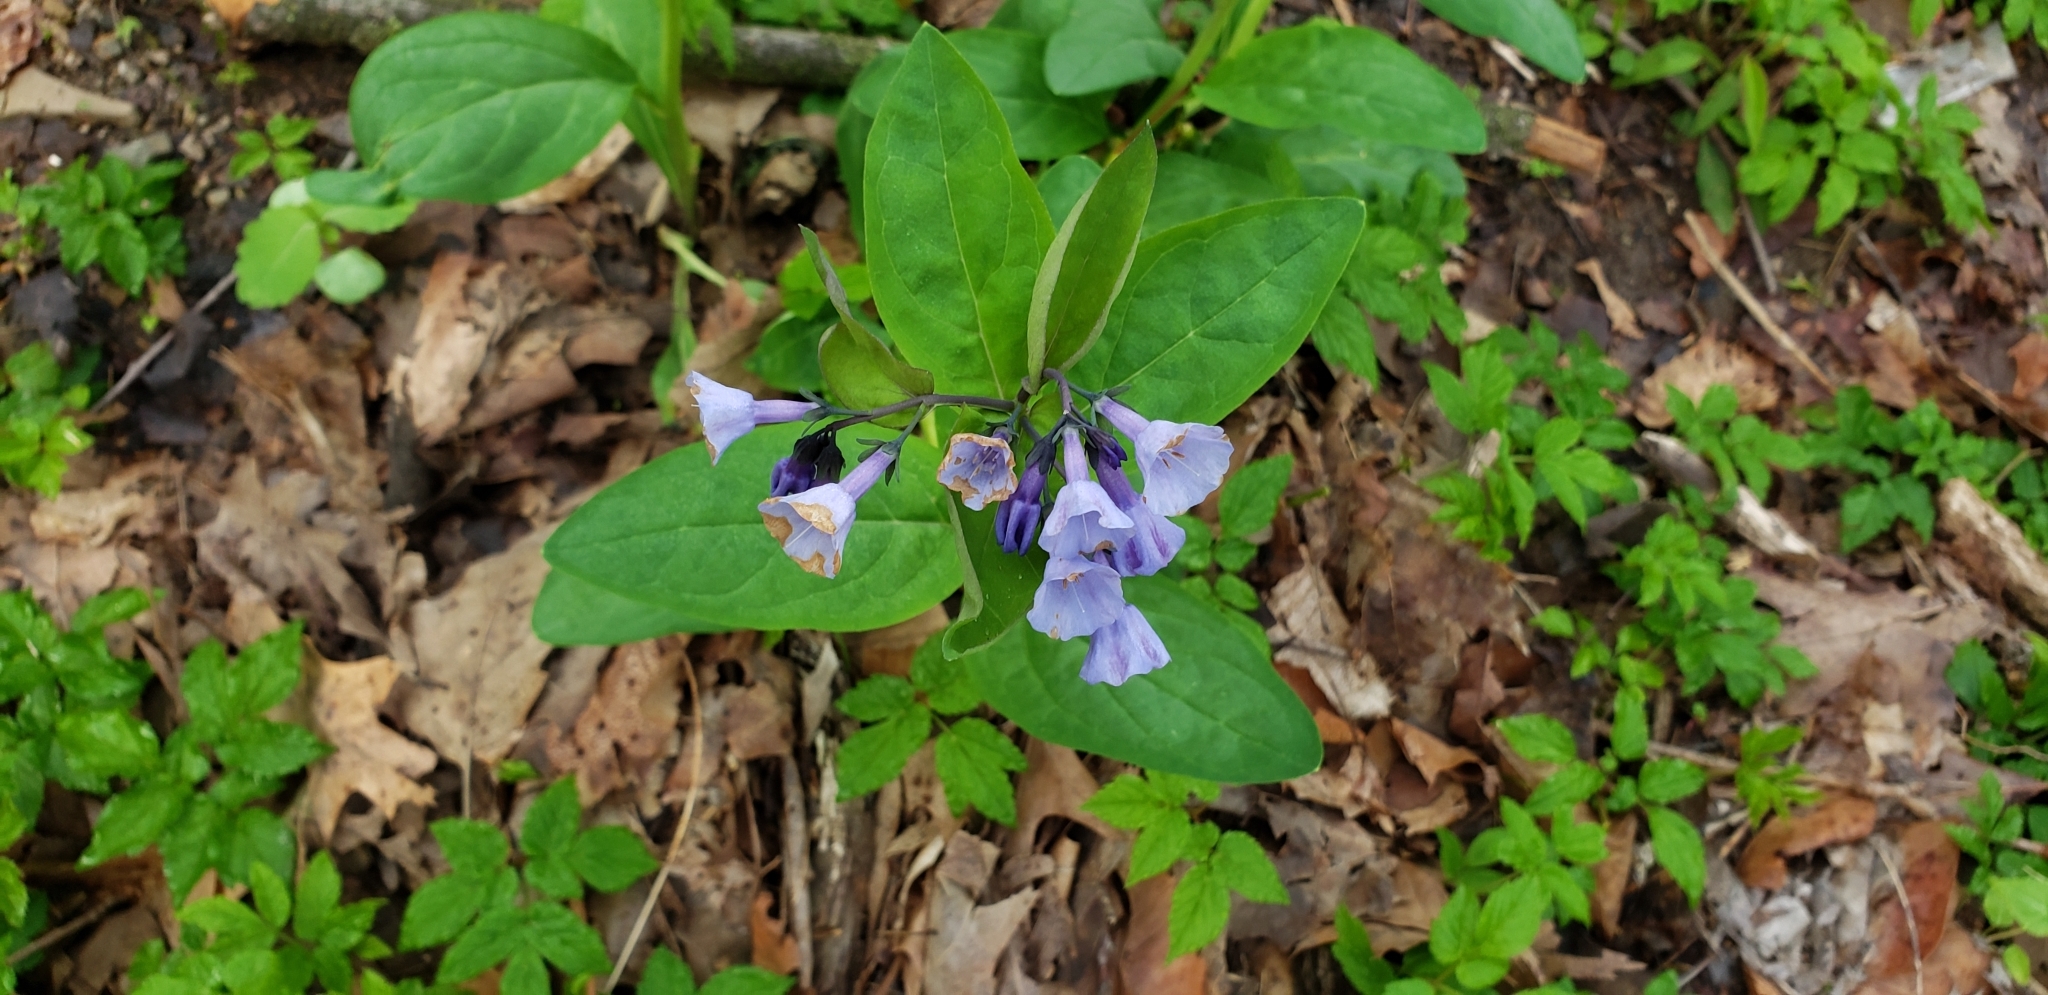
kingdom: Plantae
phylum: Tracheophyta
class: Magnoliopsida
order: Boraginales
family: Boraginaceae
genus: Mertensia
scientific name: Mertensia virginica
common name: Virginia bluebells
